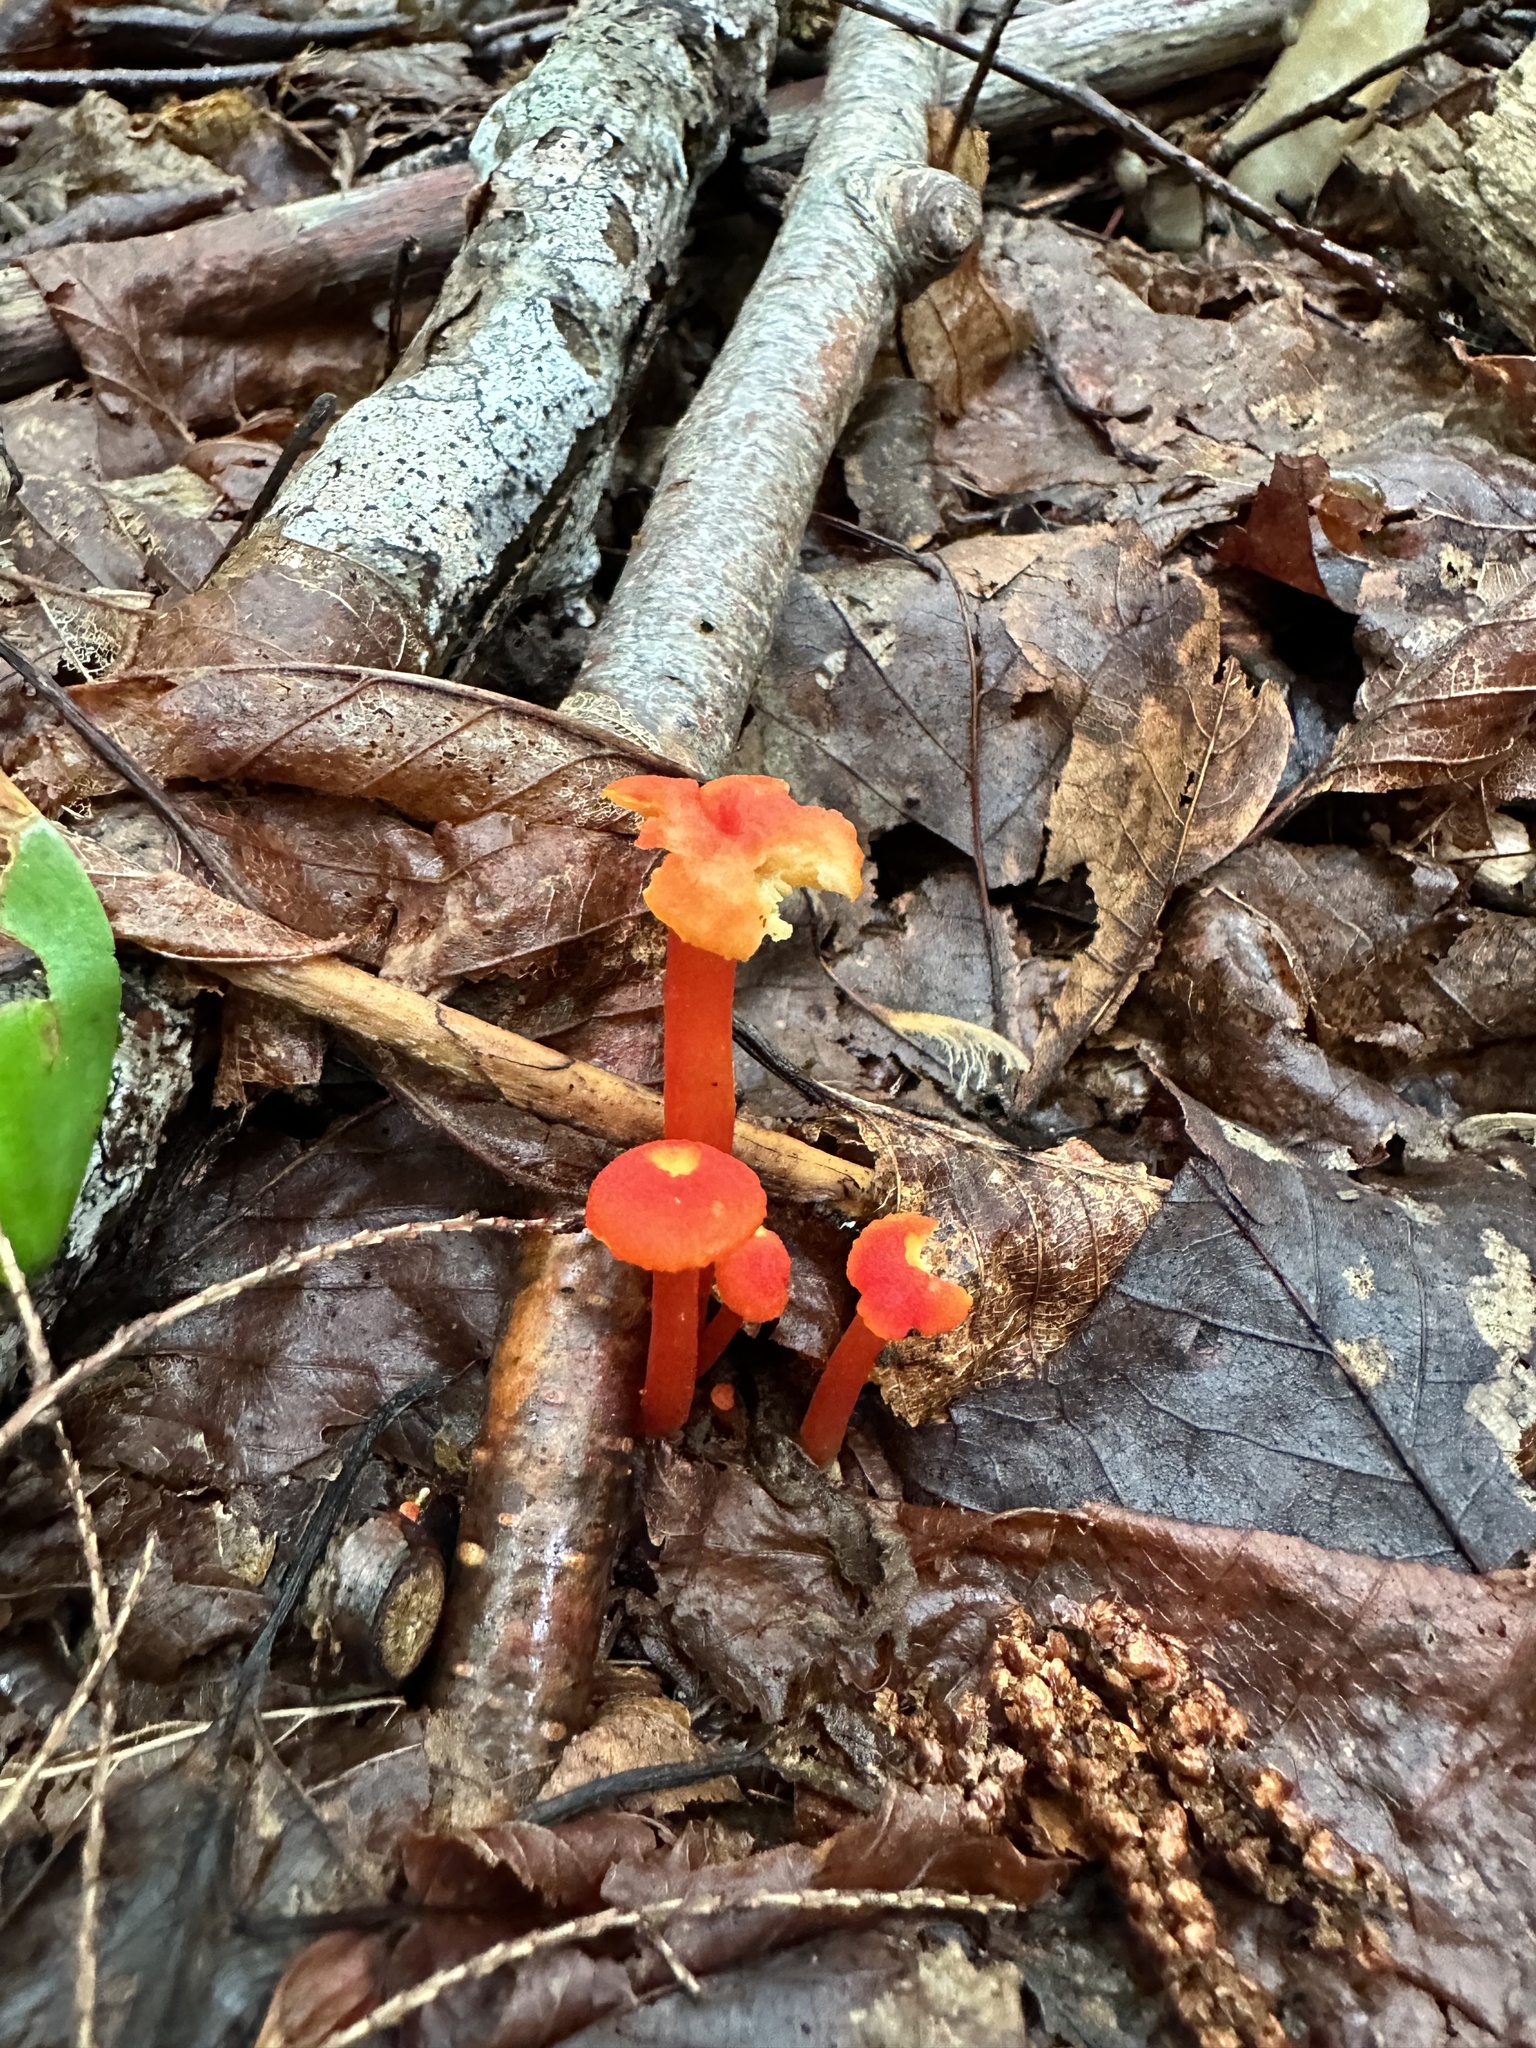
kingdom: Fungi
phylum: Basidiomycota
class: Agaricomycetes
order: Agaricales
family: Hygrophoraceae
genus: Hygrocybe
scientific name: Hygrocybe miniata
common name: Vermilion waxcap
